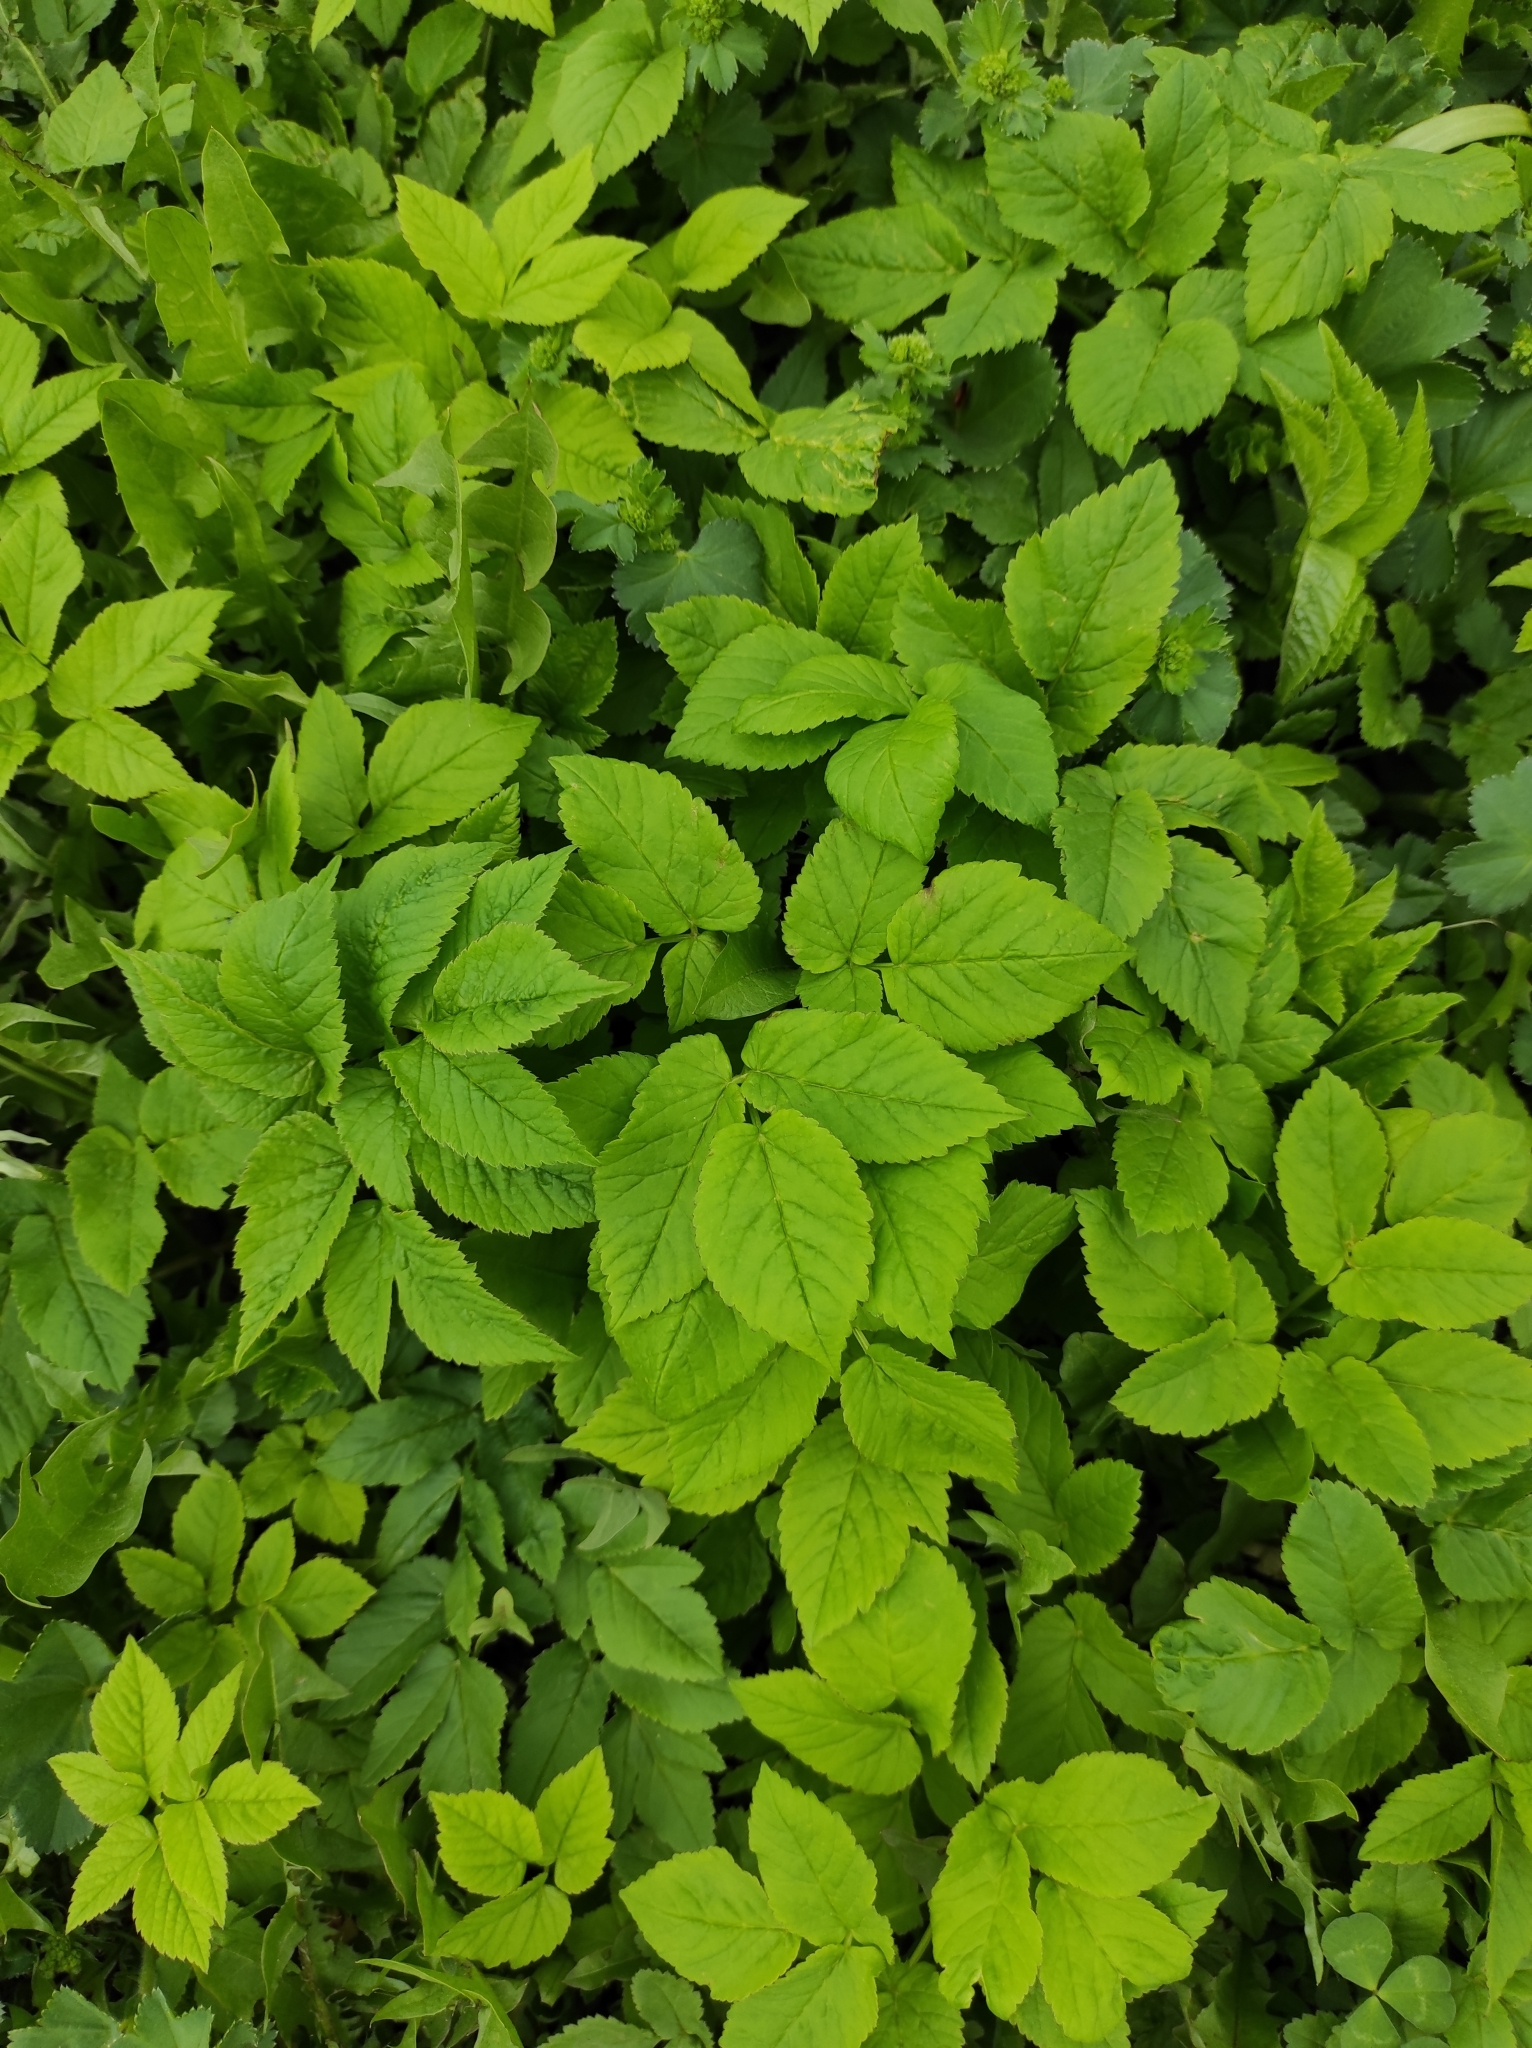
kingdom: Plantae
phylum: Tracheophyta
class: Magnoliopsida
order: Apiales
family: Apiaceae
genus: Aegopodium
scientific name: Aegopodium podagraria
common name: Ground-elder
